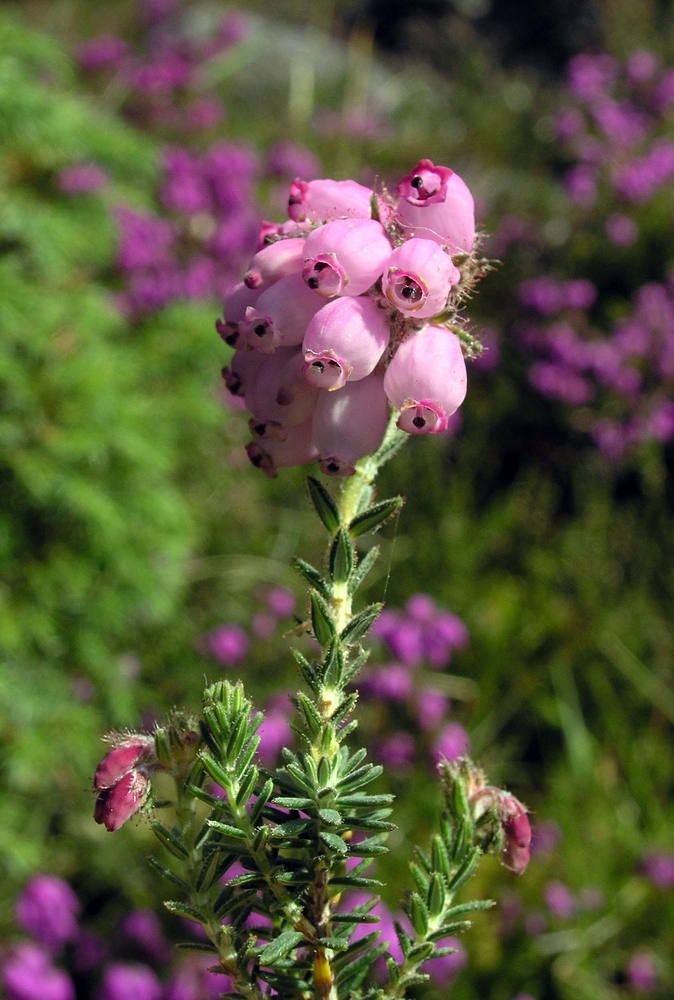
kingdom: Plantae
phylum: Tracheophyta
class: Magnoliopsida
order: Ericales
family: Ericaceae
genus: Erica
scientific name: Erica tetralix
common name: Cross-leaved heath
